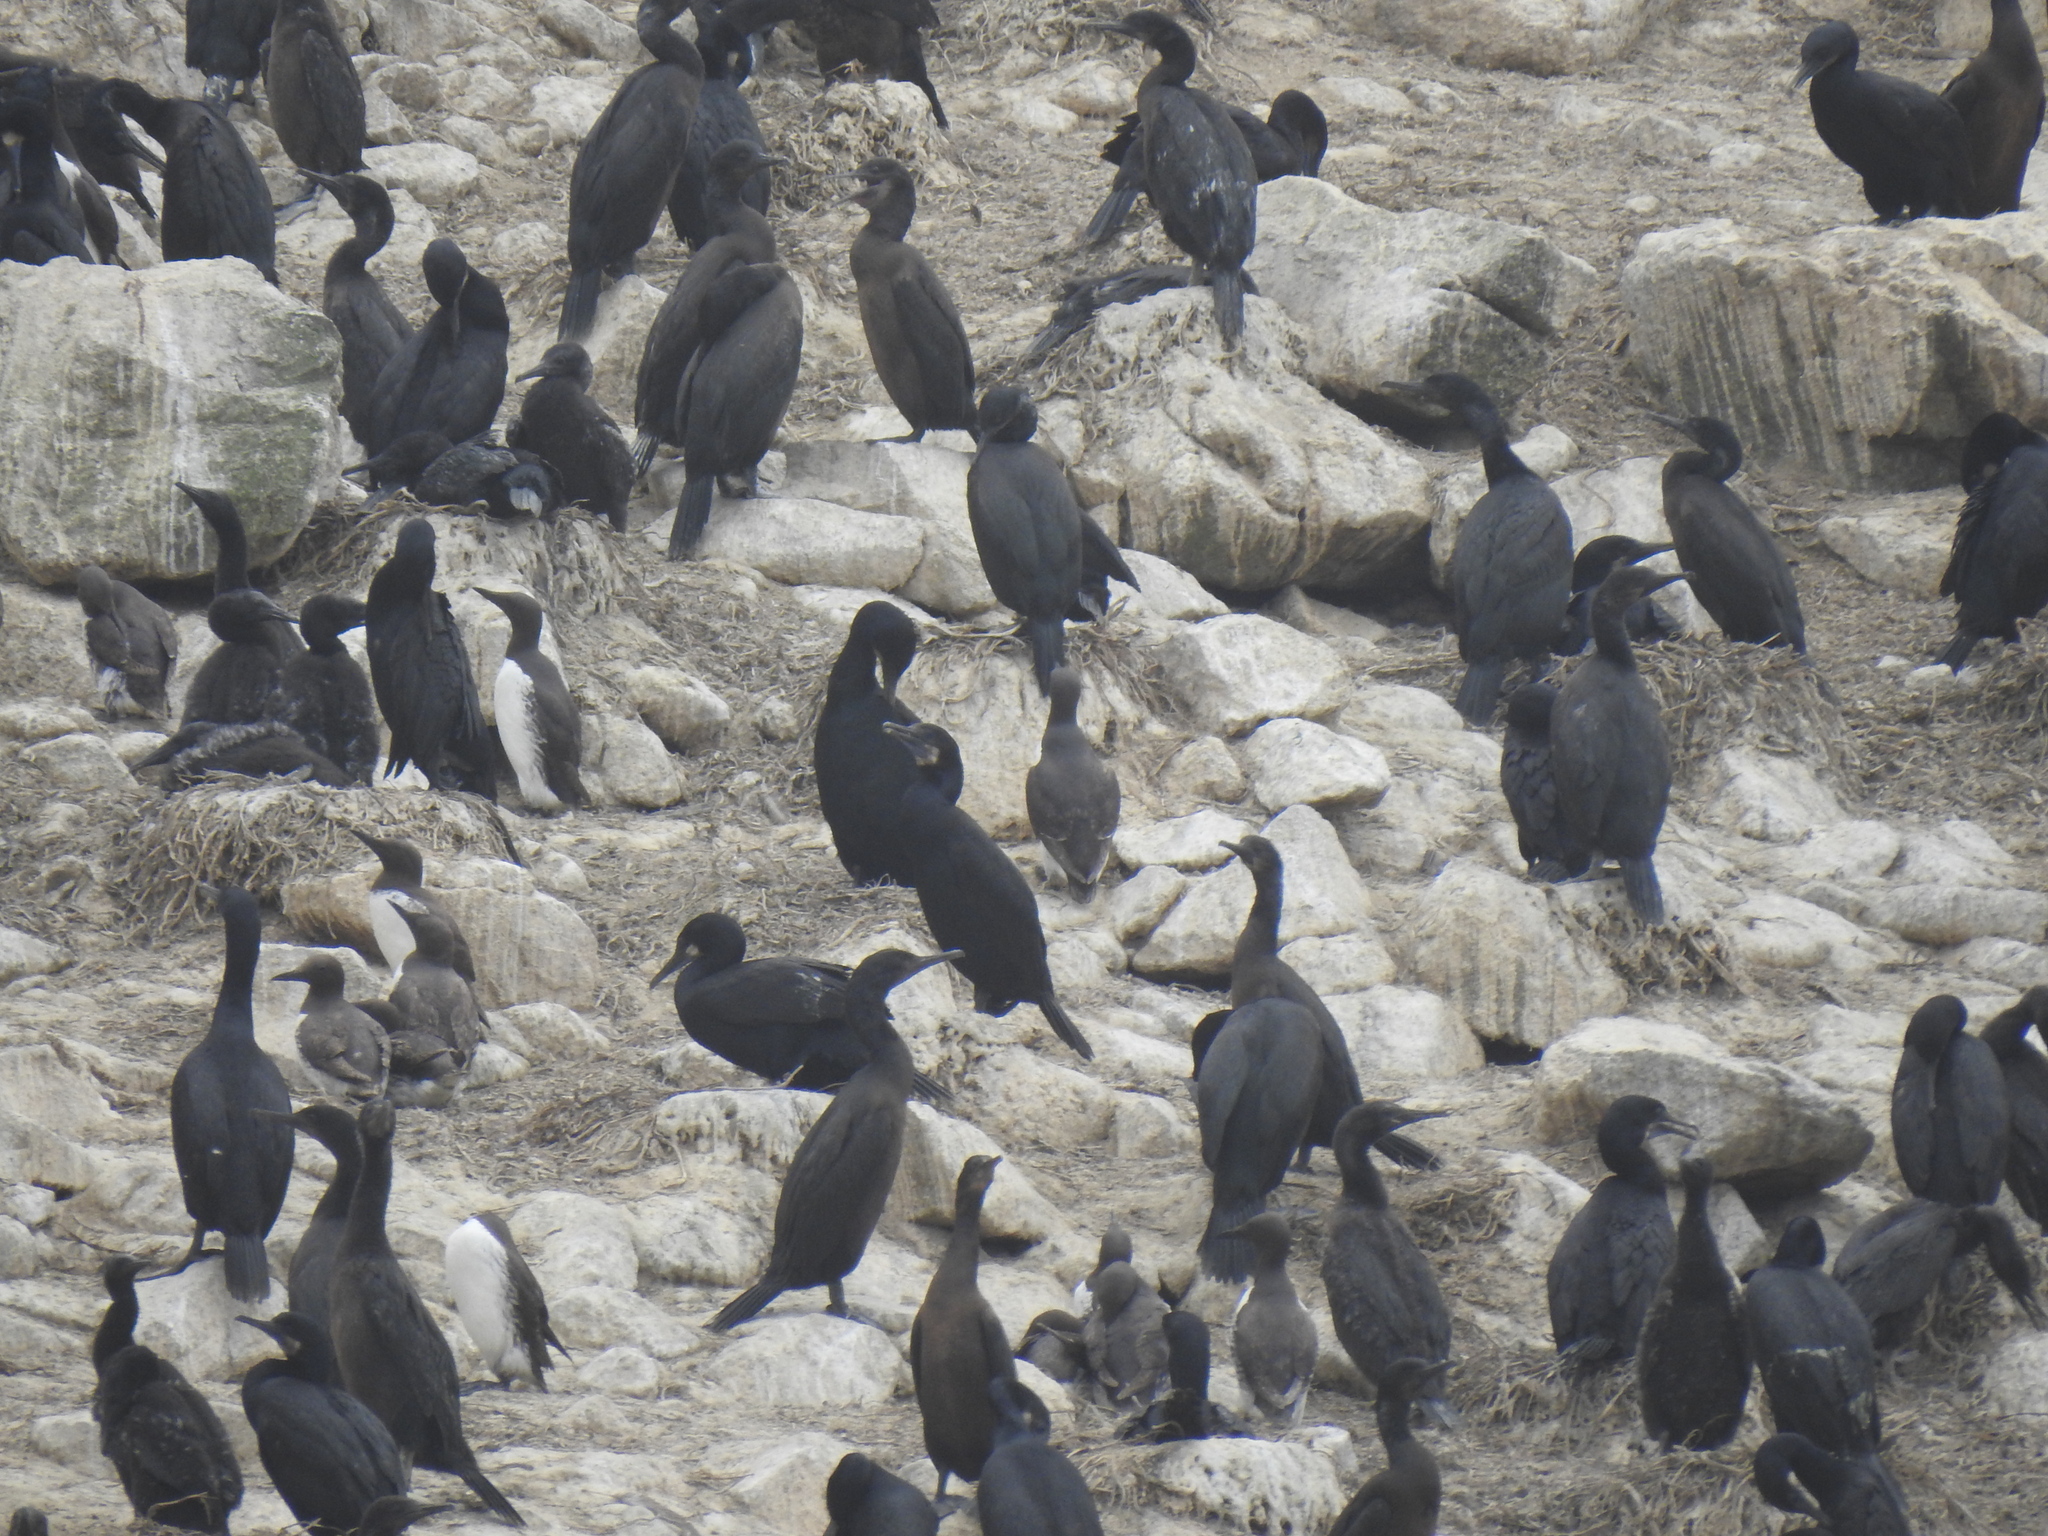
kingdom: Animalia
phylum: Chordata
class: Aves
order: Suliformes
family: Phalacrocoracidae
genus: Urile
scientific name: Urile penicillatus
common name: Brandt's cormorant
